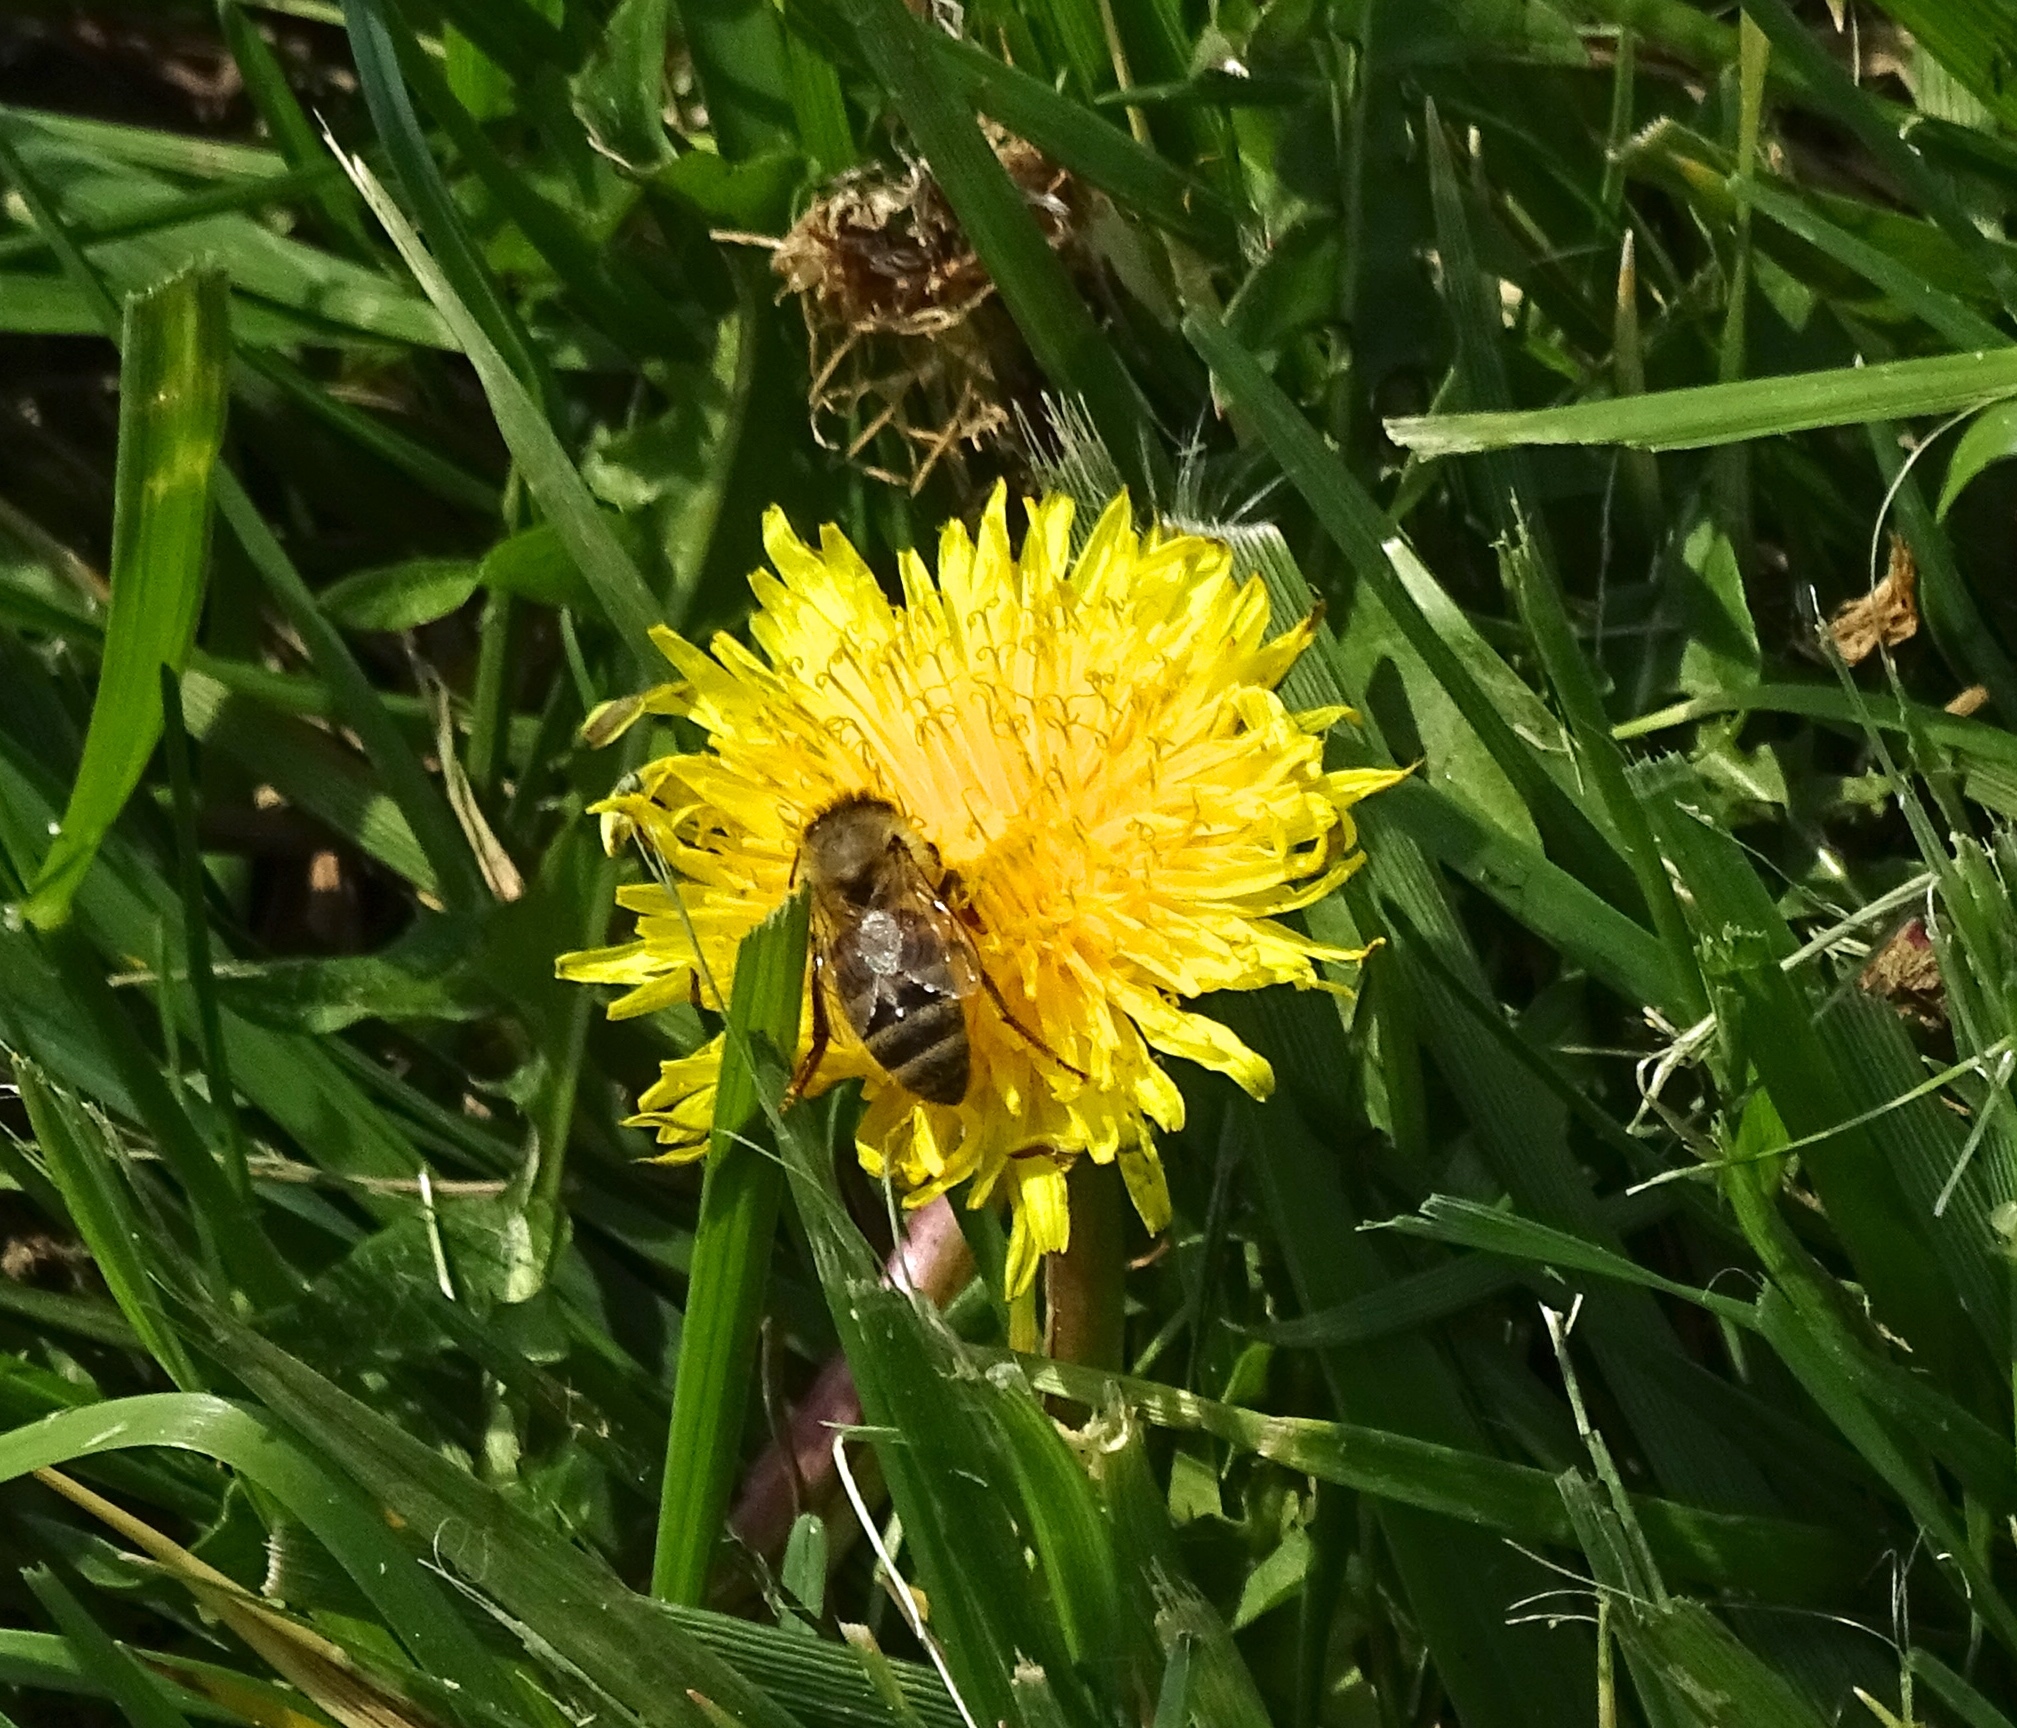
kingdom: Animalia
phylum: Arthropoda
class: Insecta
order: Hymenoptera
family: Apidae
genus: Apis
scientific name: Apis mellifera
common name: Honey bee
